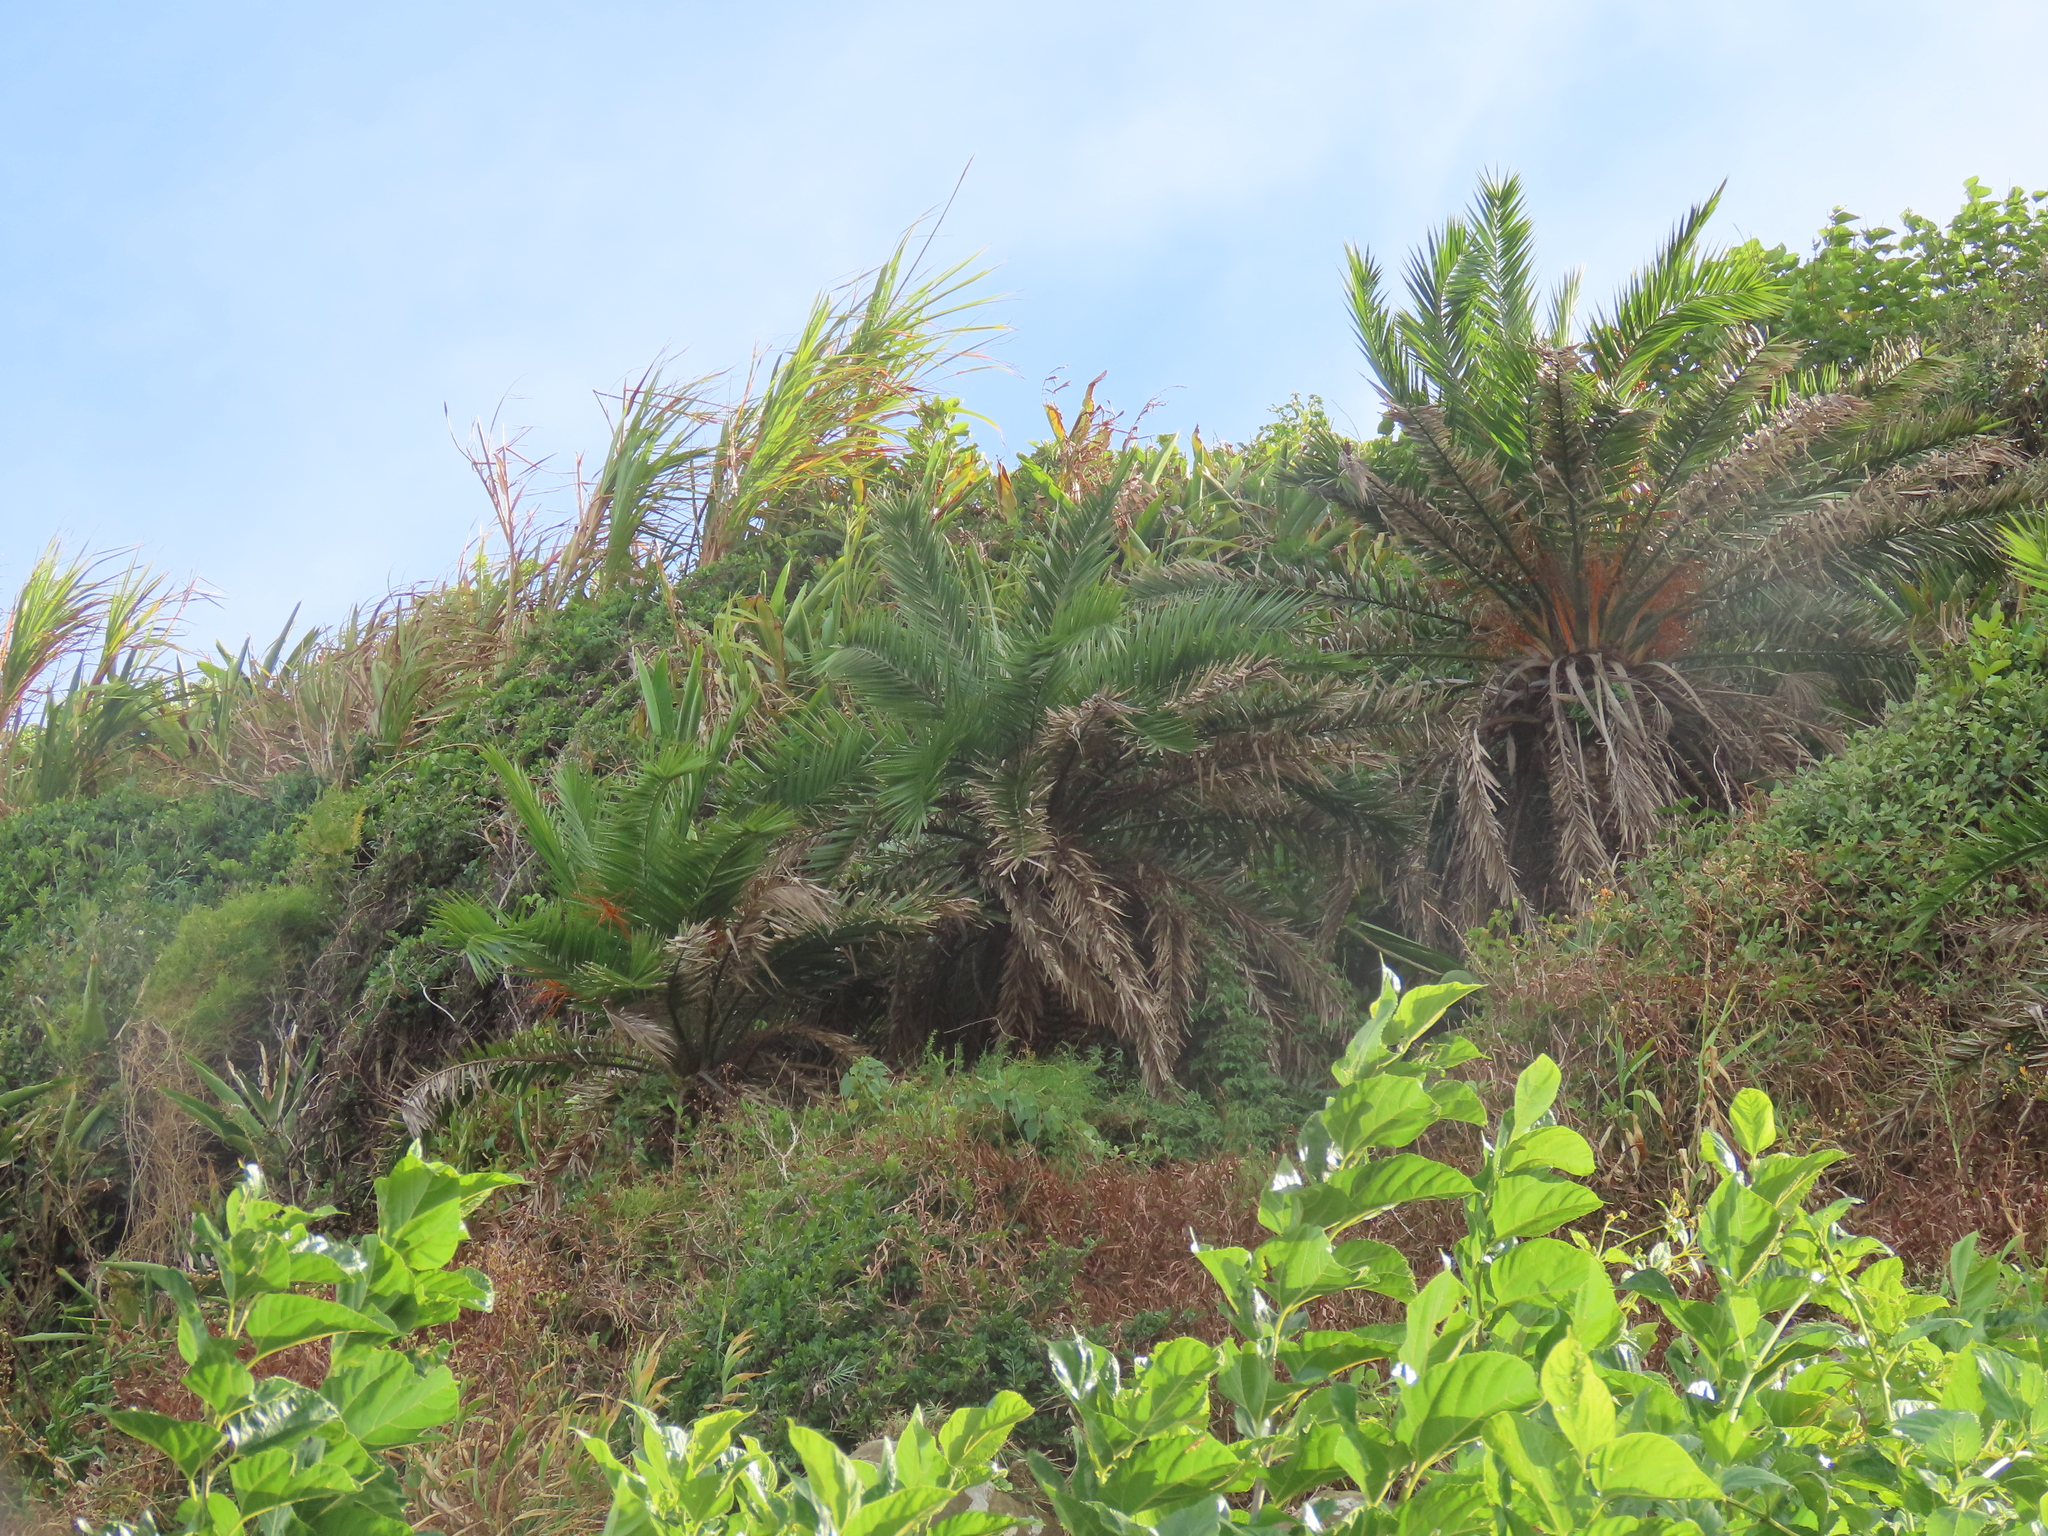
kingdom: Plantae
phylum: Tracheophyta
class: Liliopsida
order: Arecales
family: Arecaceae
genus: Phoenix
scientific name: Phoenix loureiroi
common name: Loureiro's palm
